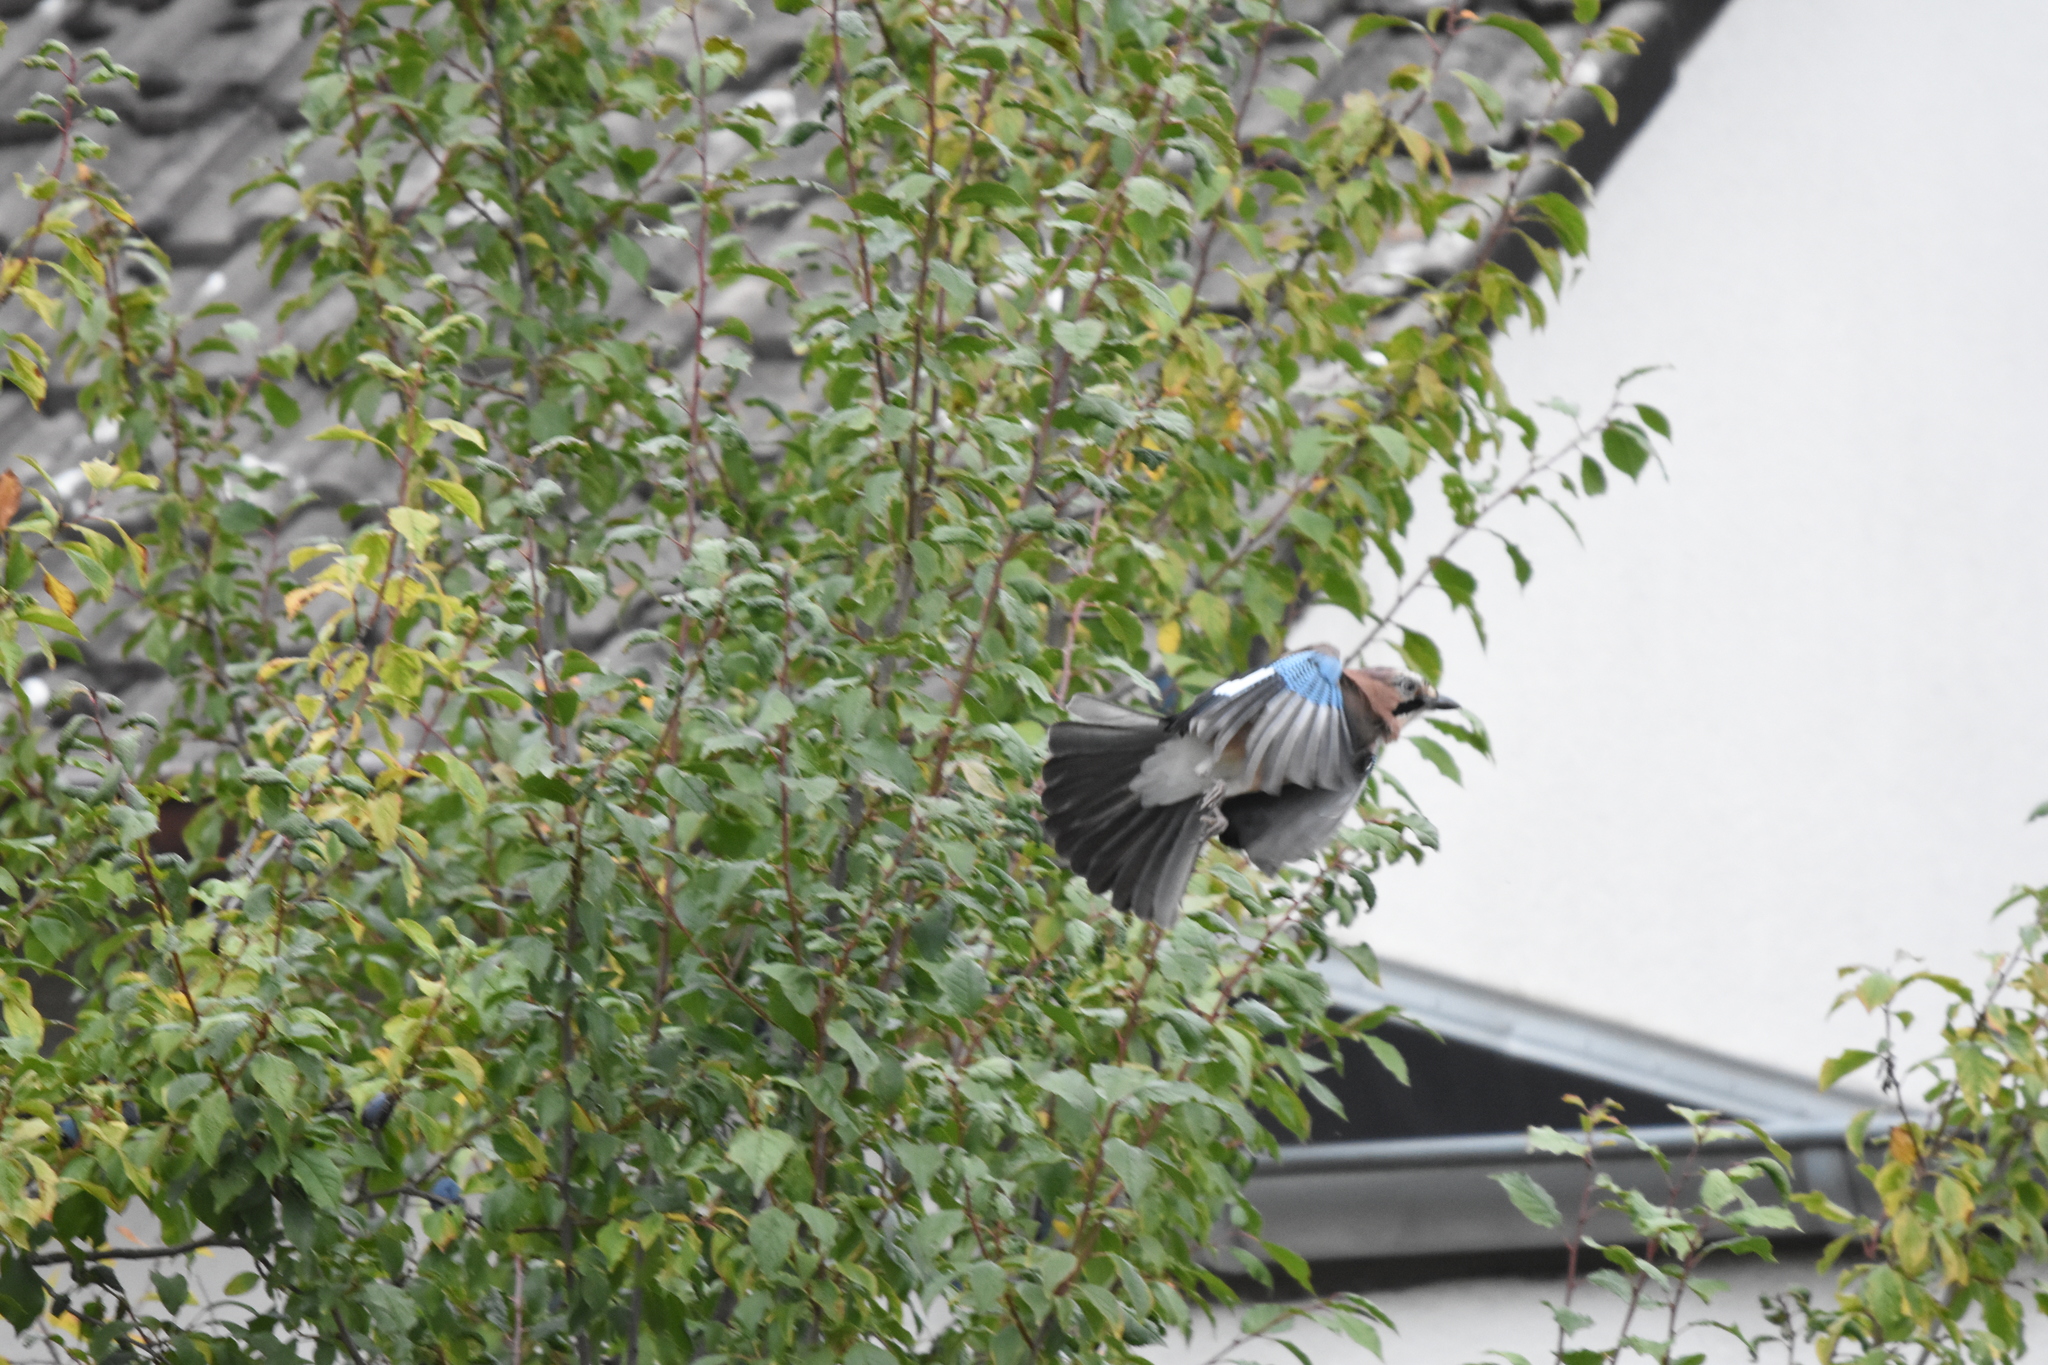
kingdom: Animalia
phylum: Chordata
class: Aves
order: Passeriformes
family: Corvidae
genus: Garrulus
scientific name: Garrulus glandarius
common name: Eurasian jay
